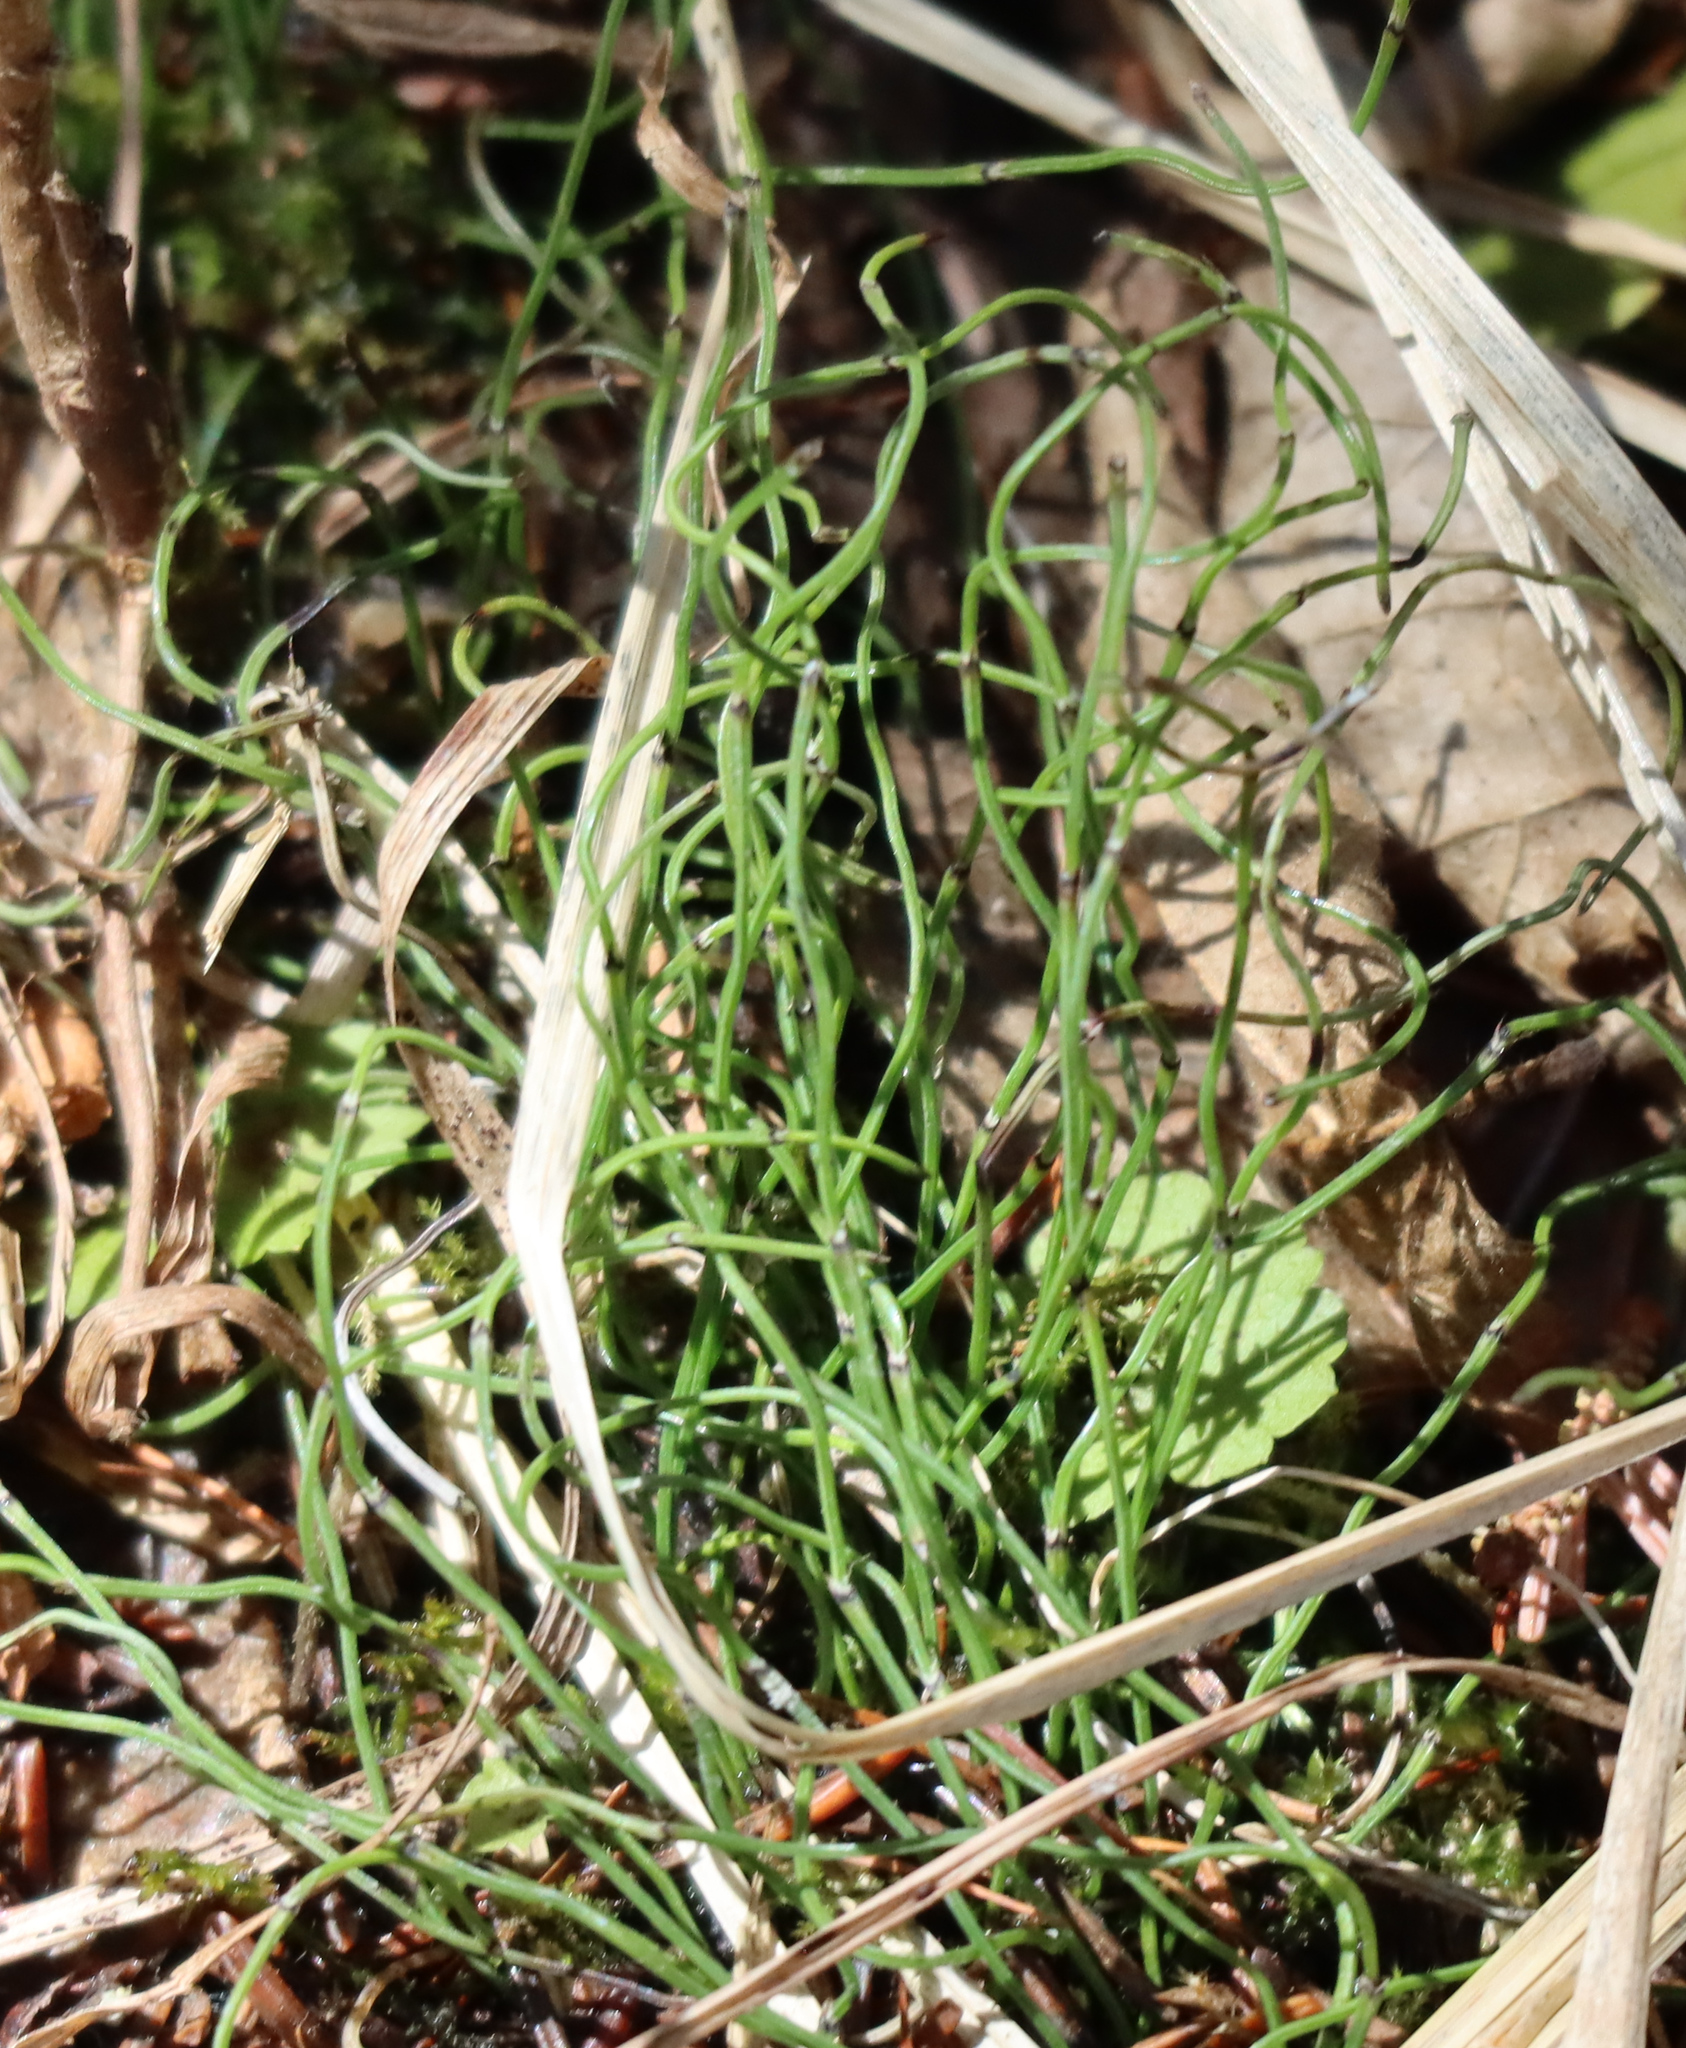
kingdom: Plantae
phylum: Tracheophyta
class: Polypodiopsida
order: Equisetales
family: Equisetaceae
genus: Equisetum
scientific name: Equisetum scirpoides
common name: Delicate horsetail
